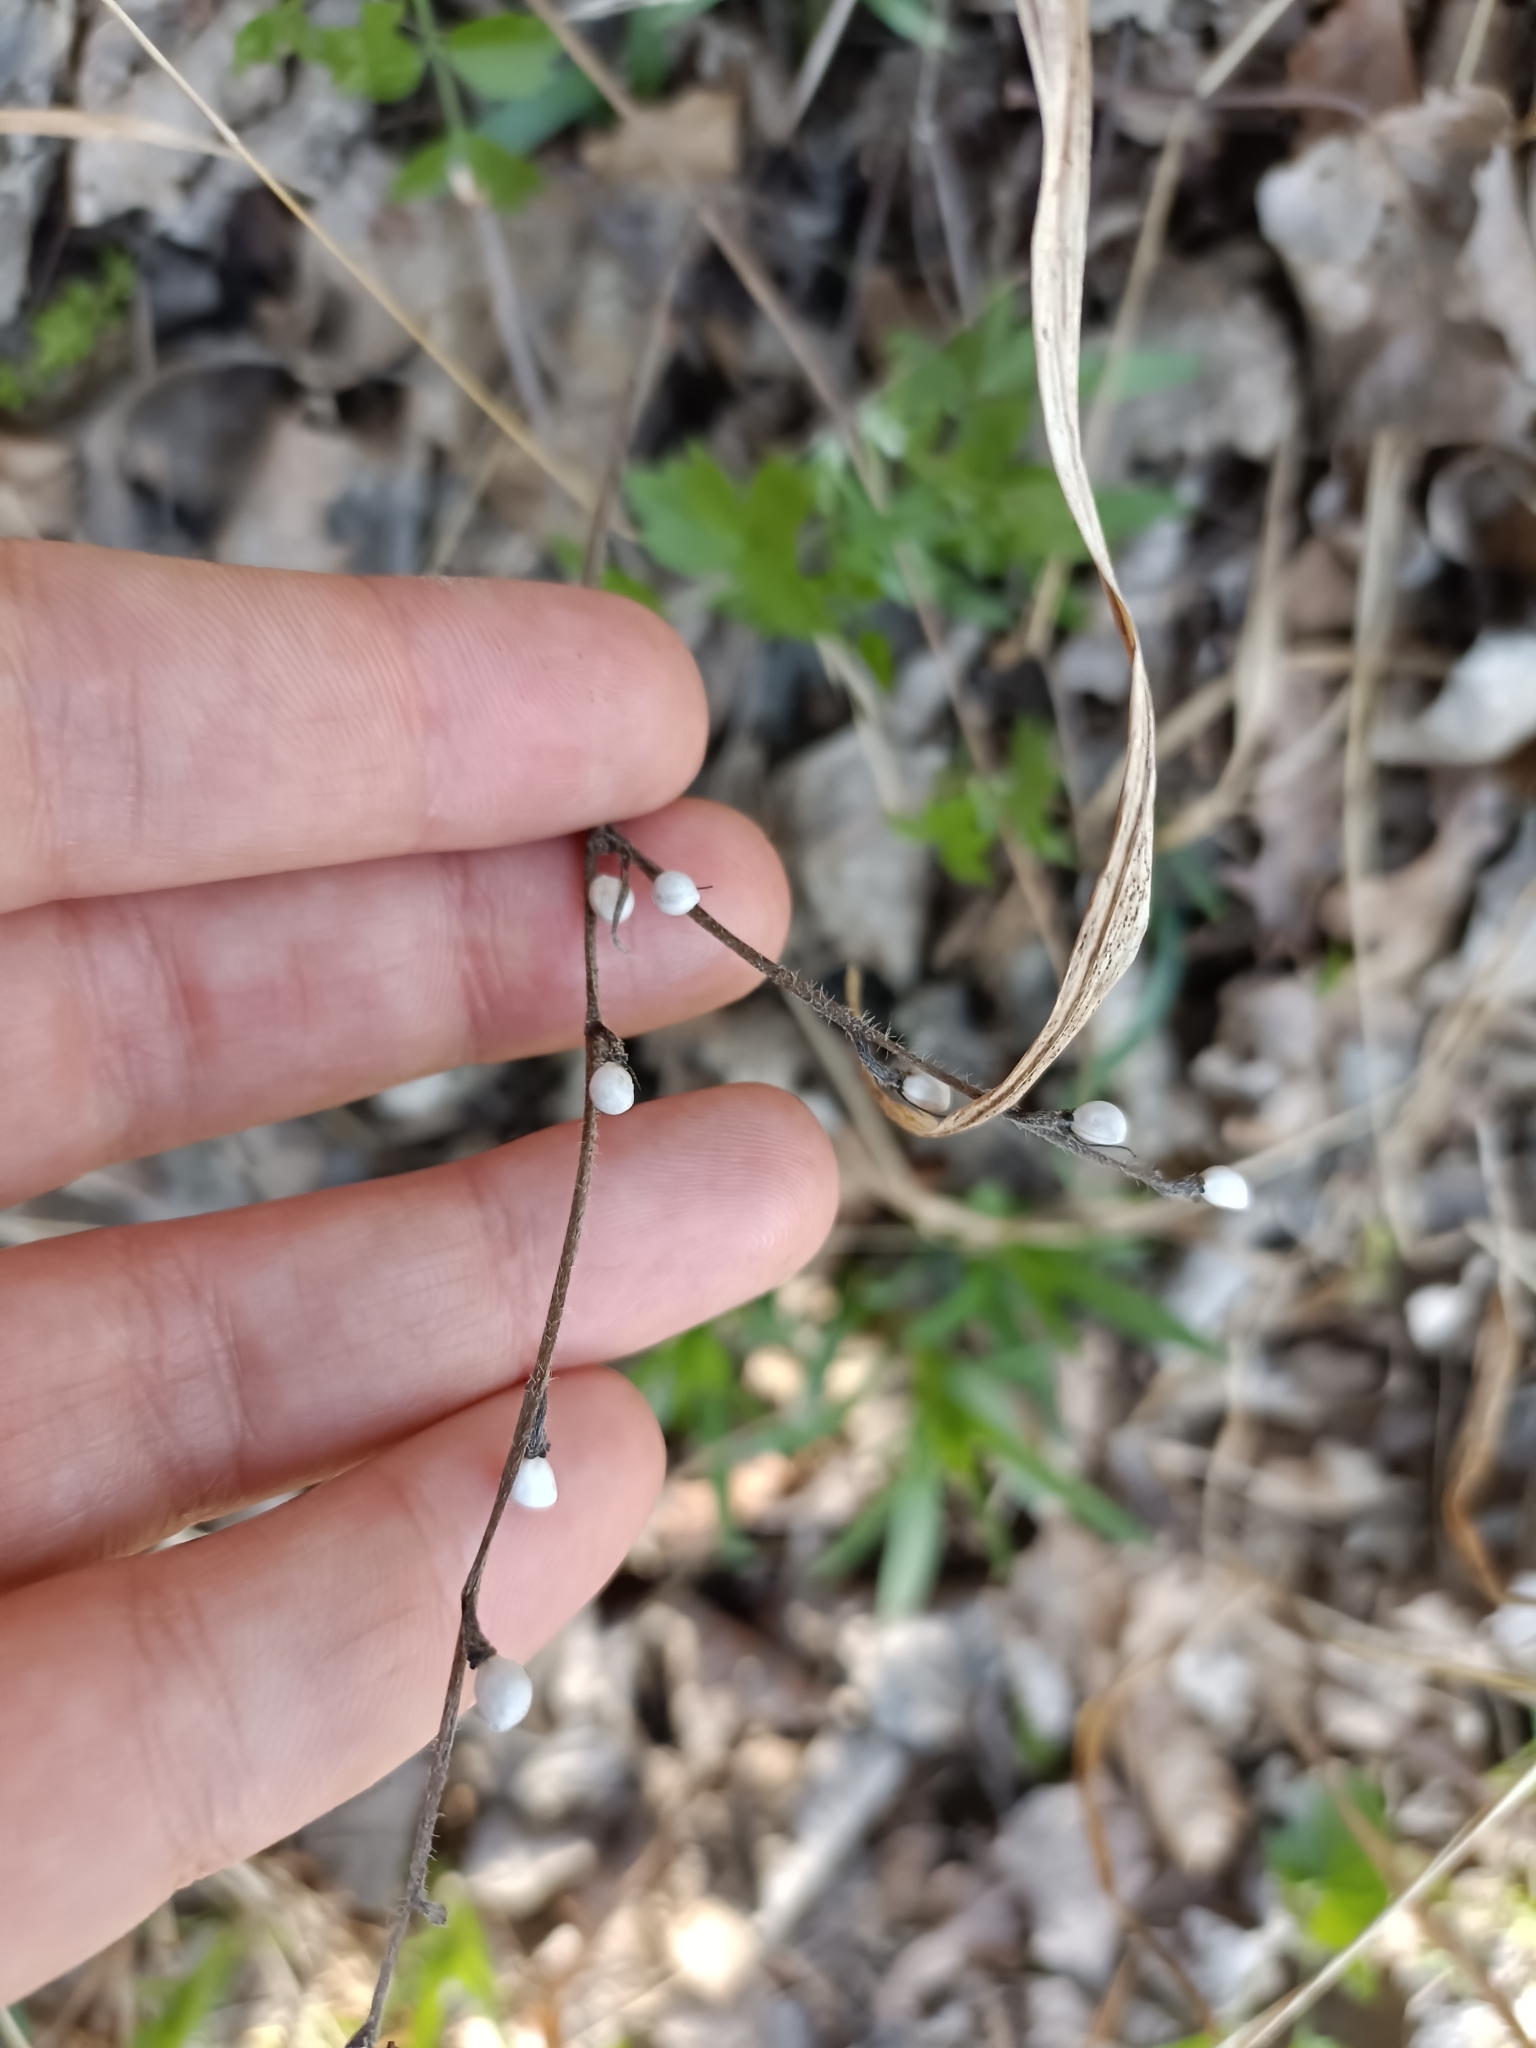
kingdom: Plantae
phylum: Tracheophyta
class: Magnoliopsida
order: Boraginales
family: Boraginaceae
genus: Aegonychon
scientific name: Aegonychon purpurocaeruleum
